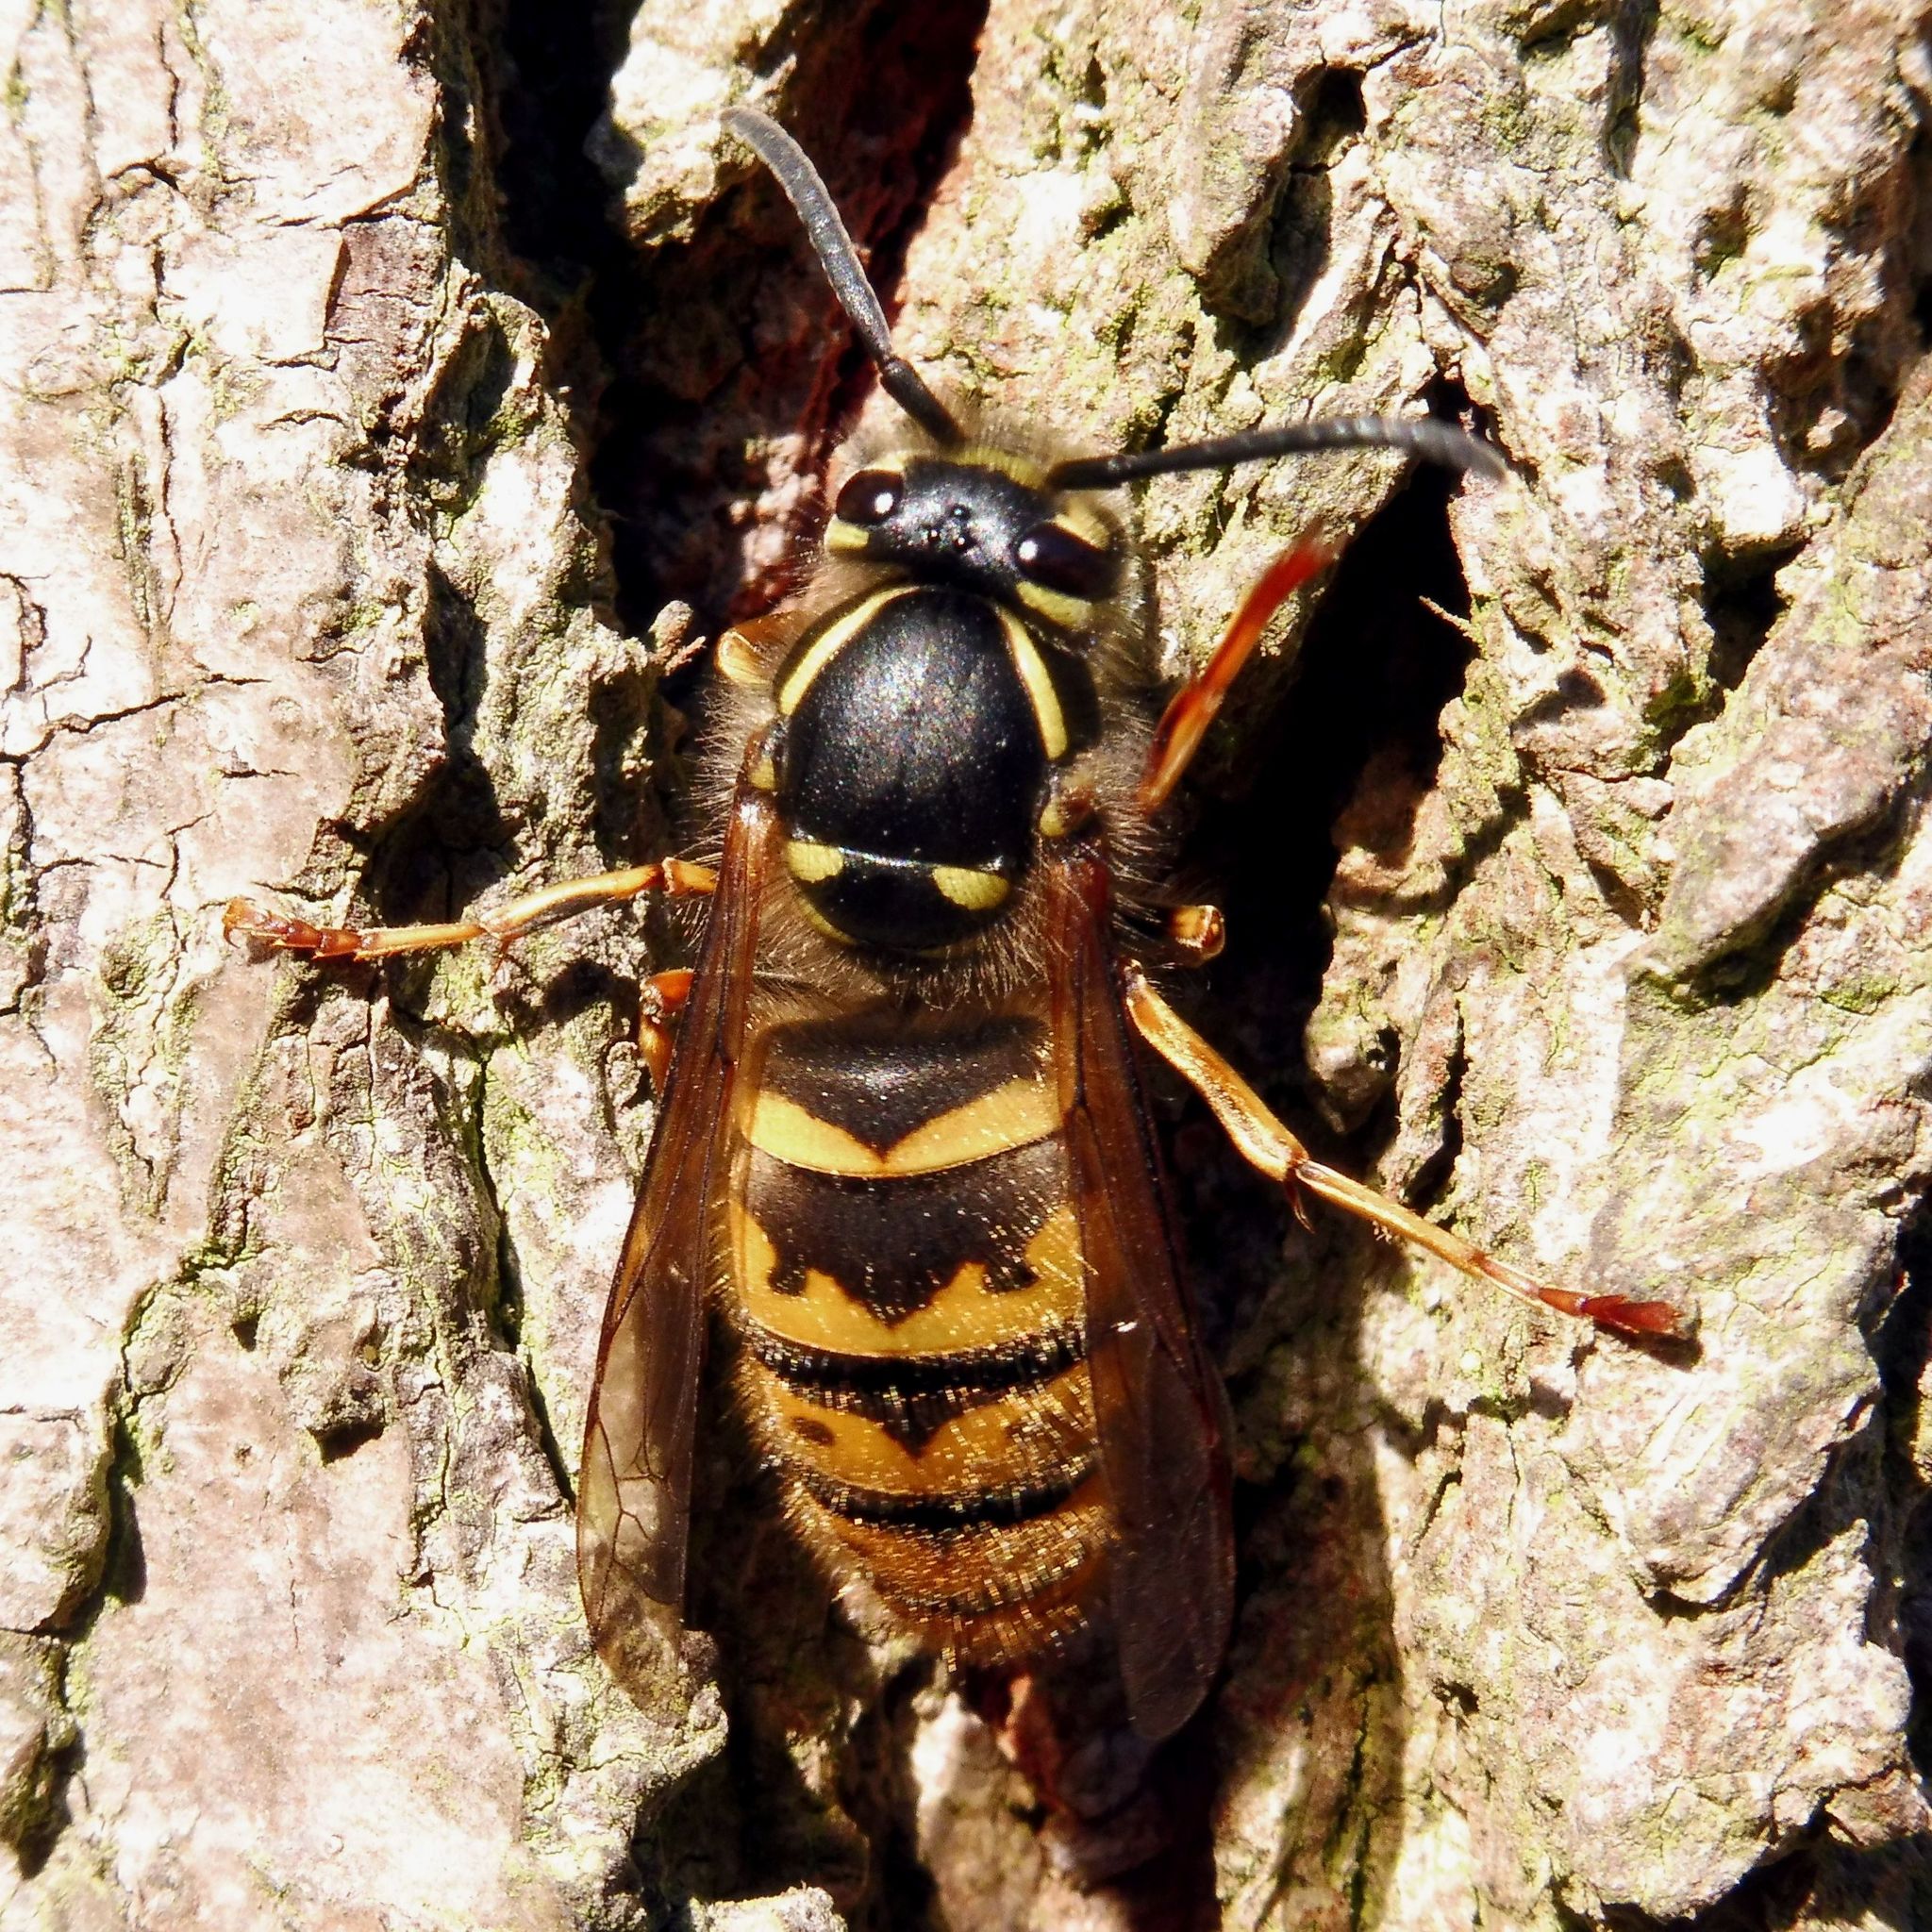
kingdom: Animalia
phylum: Arthropoda
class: Insecta
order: Hymenoptera
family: Vespidae
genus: Vespula
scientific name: Vespula vulgaris
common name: Common wasp
